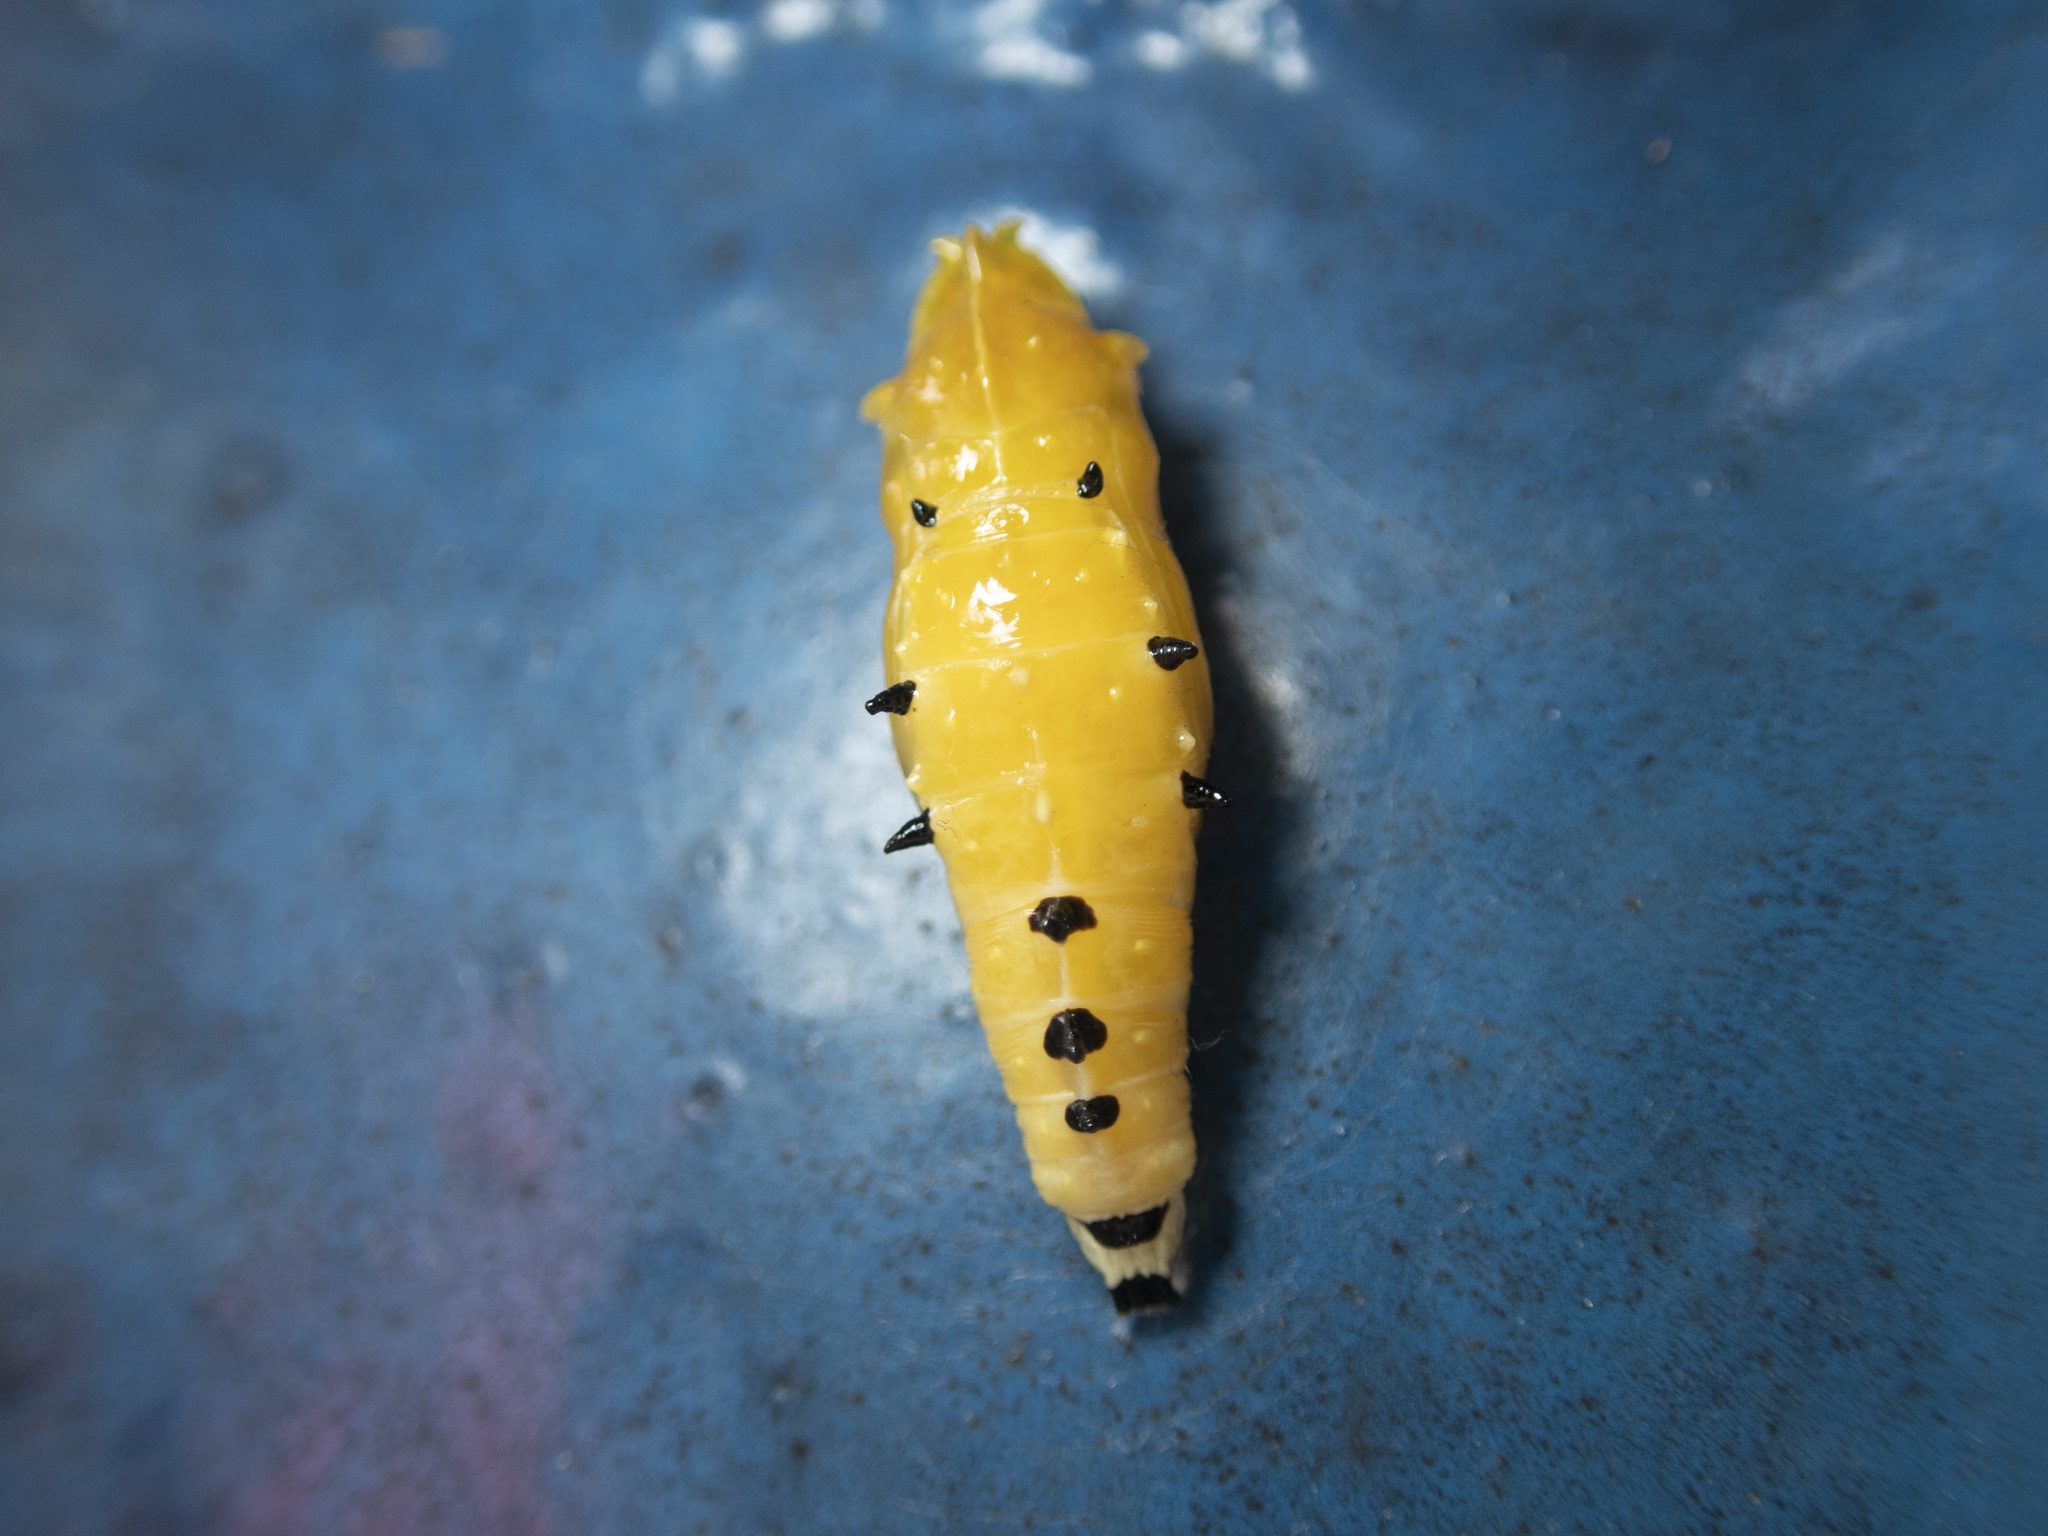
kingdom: Animalia
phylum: Arthropoda
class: Insecta
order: Lepidoptera
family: Pieridae
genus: Delias
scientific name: Delias hyparete
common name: Painted jezebel
